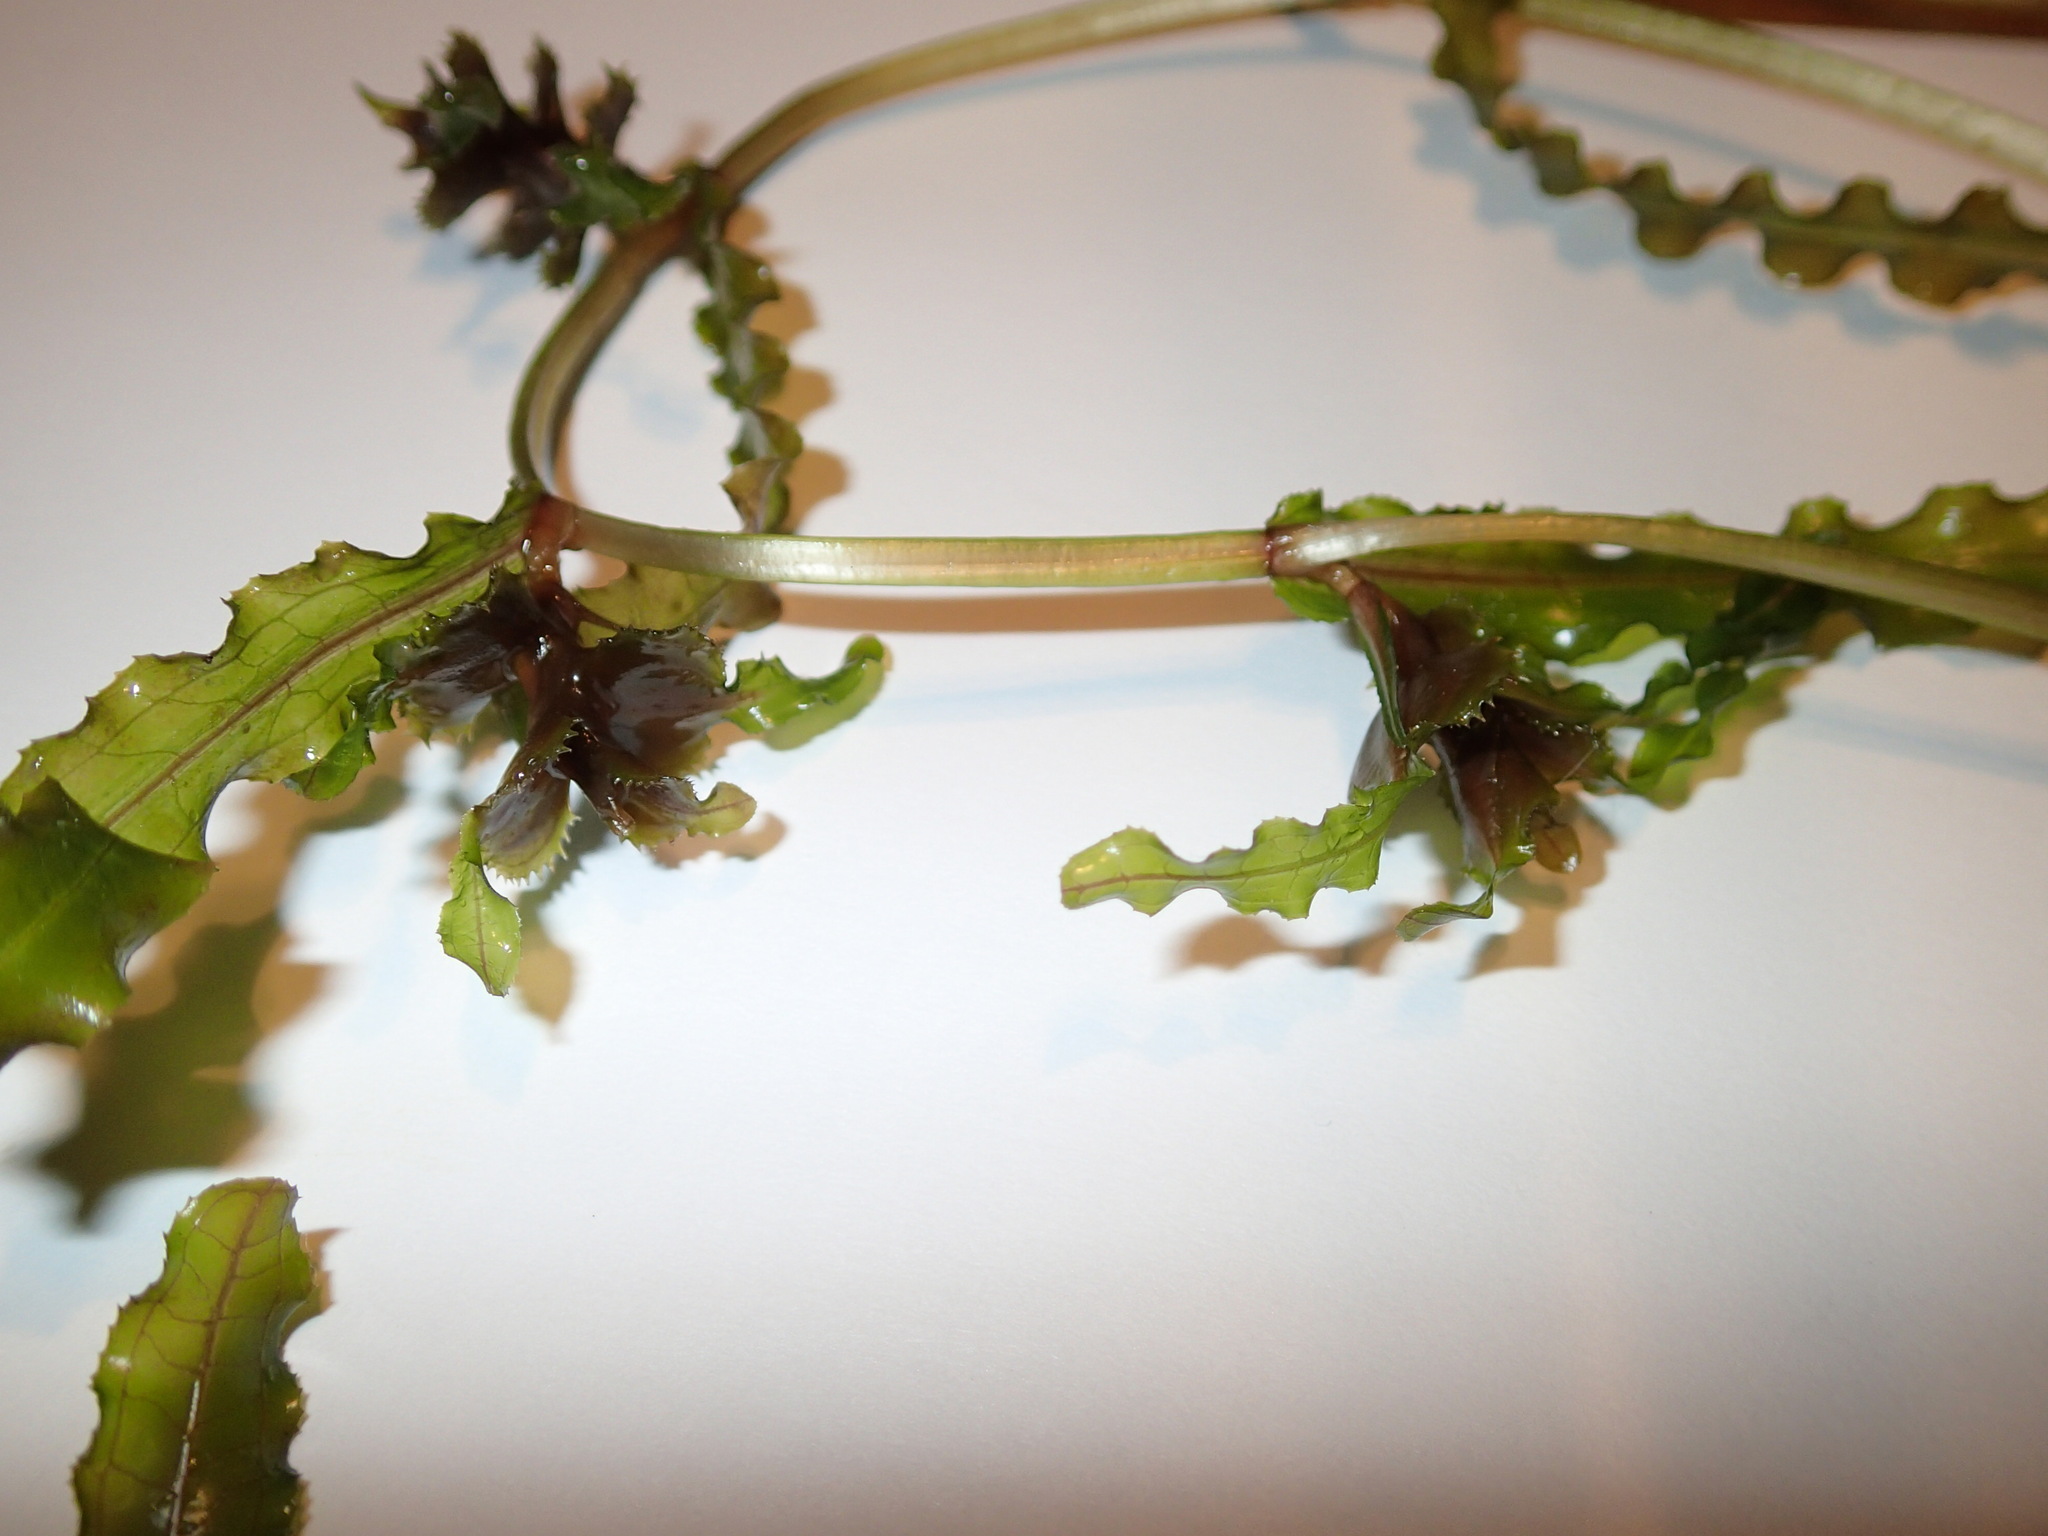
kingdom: Plantae
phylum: Tracheophyta
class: Liliopsida
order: Alismatales
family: Potamogetonaceae
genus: Potamogeton
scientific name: Potamogeton crispus
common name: Curled pondweed
